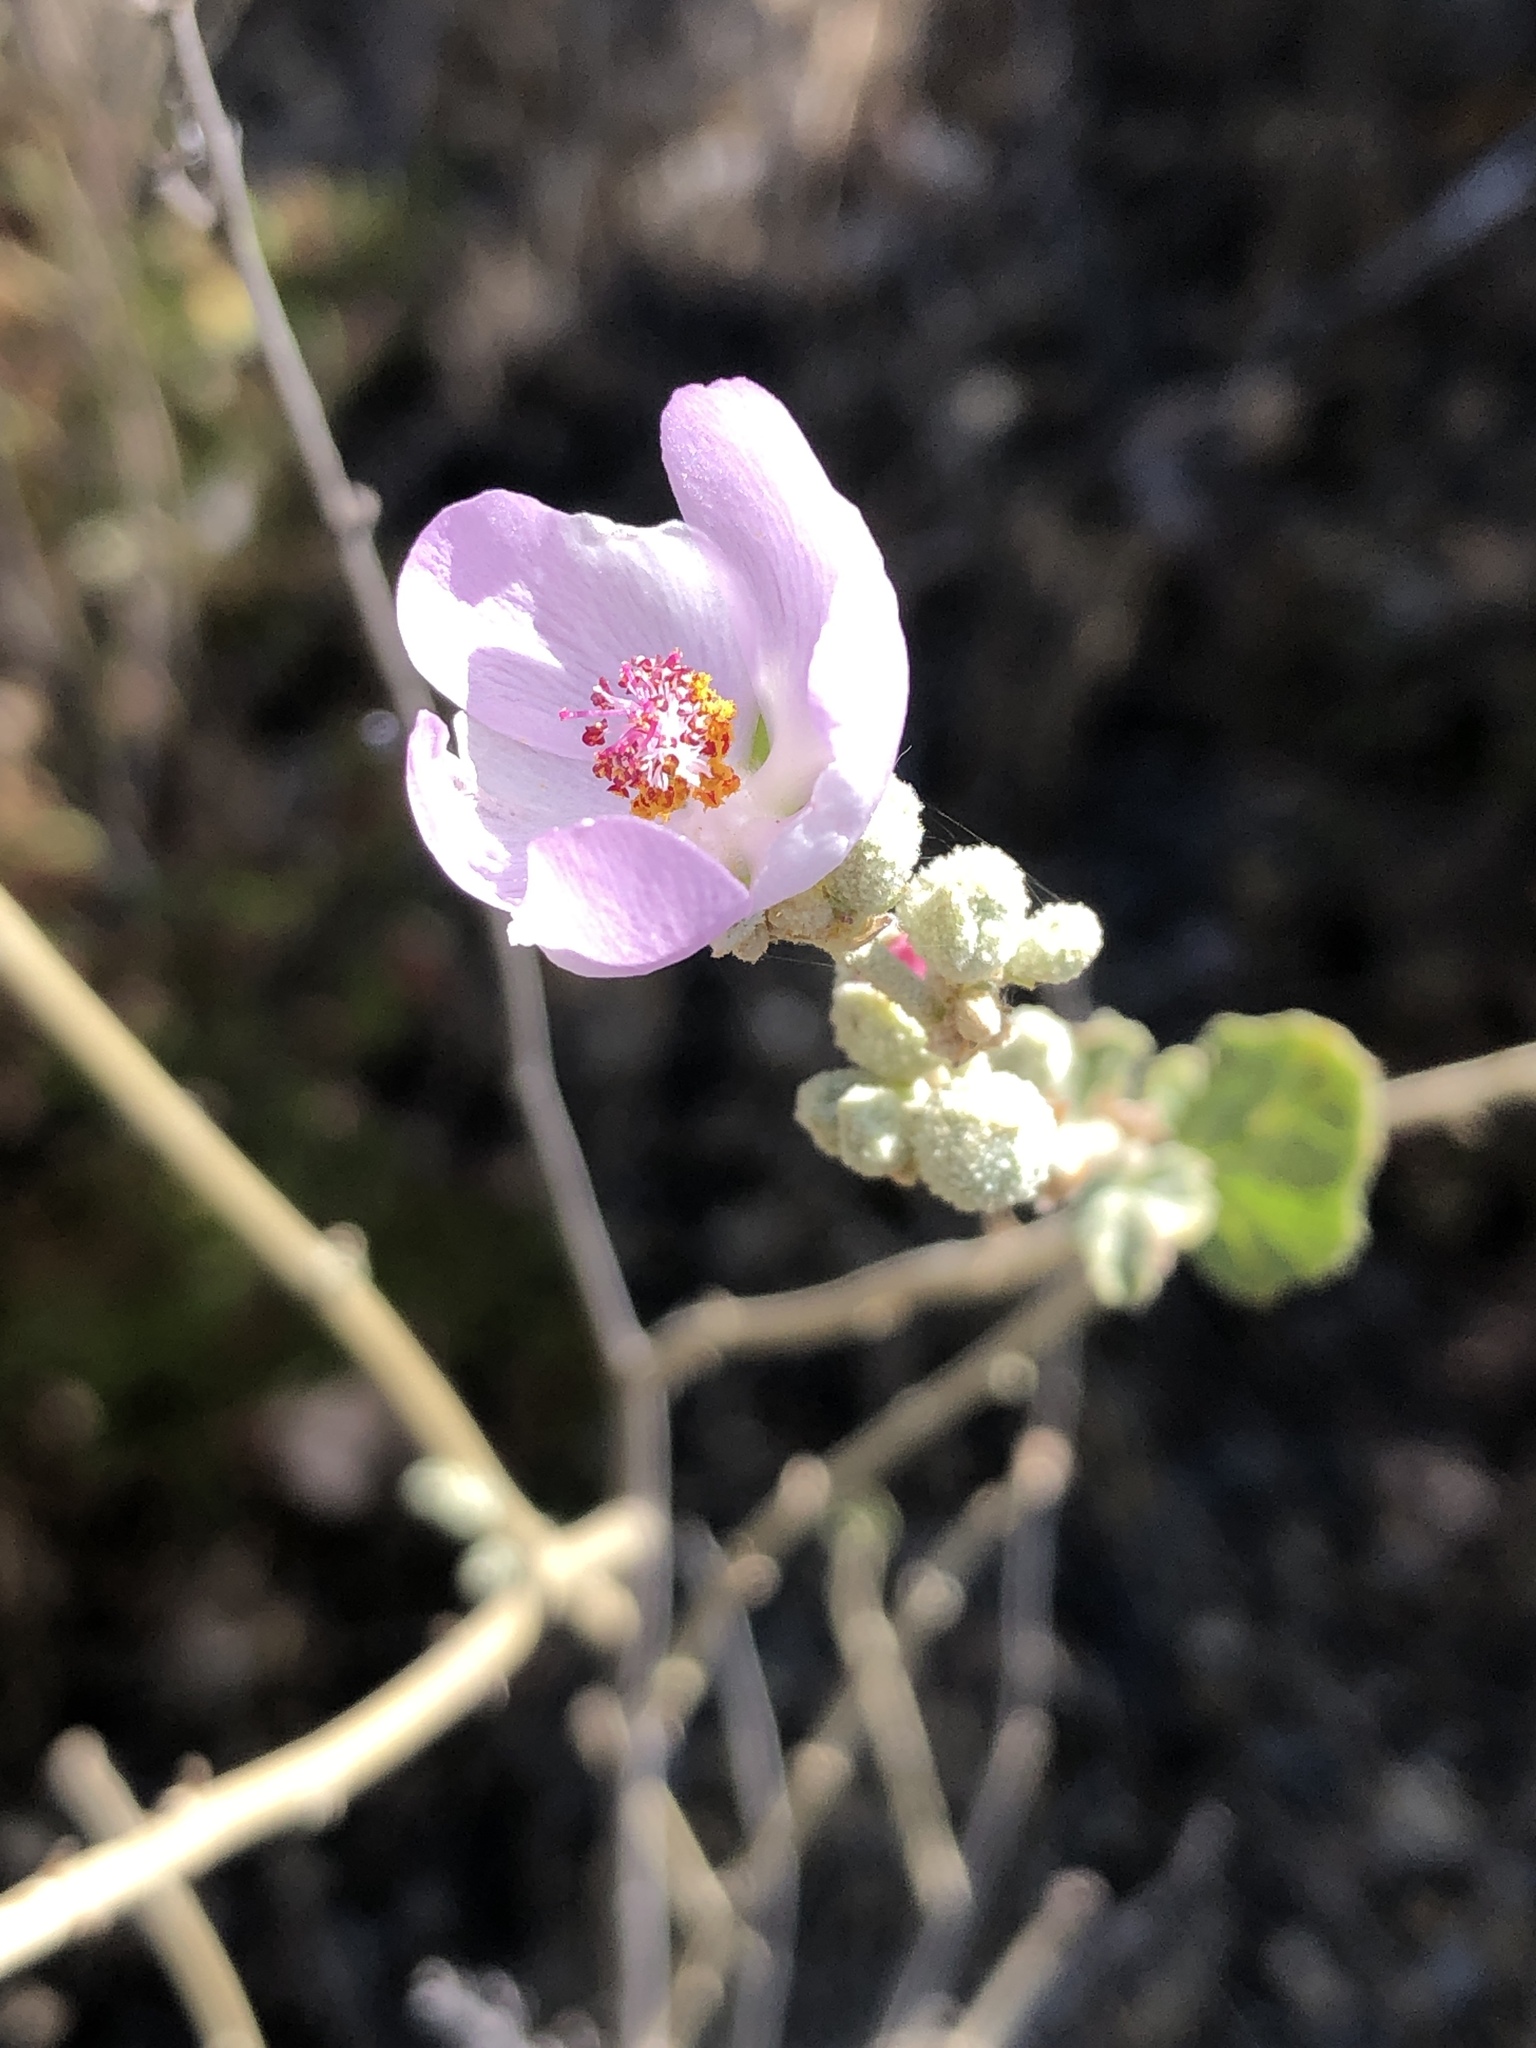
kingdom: Plantae
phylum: Tracheophyta
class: Magnoliopsida
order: Malvales
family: Malvaceae
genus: Malacothamnus
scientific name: Malacothamnus fasciculatus
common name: Sant cruz island bush-mallow
